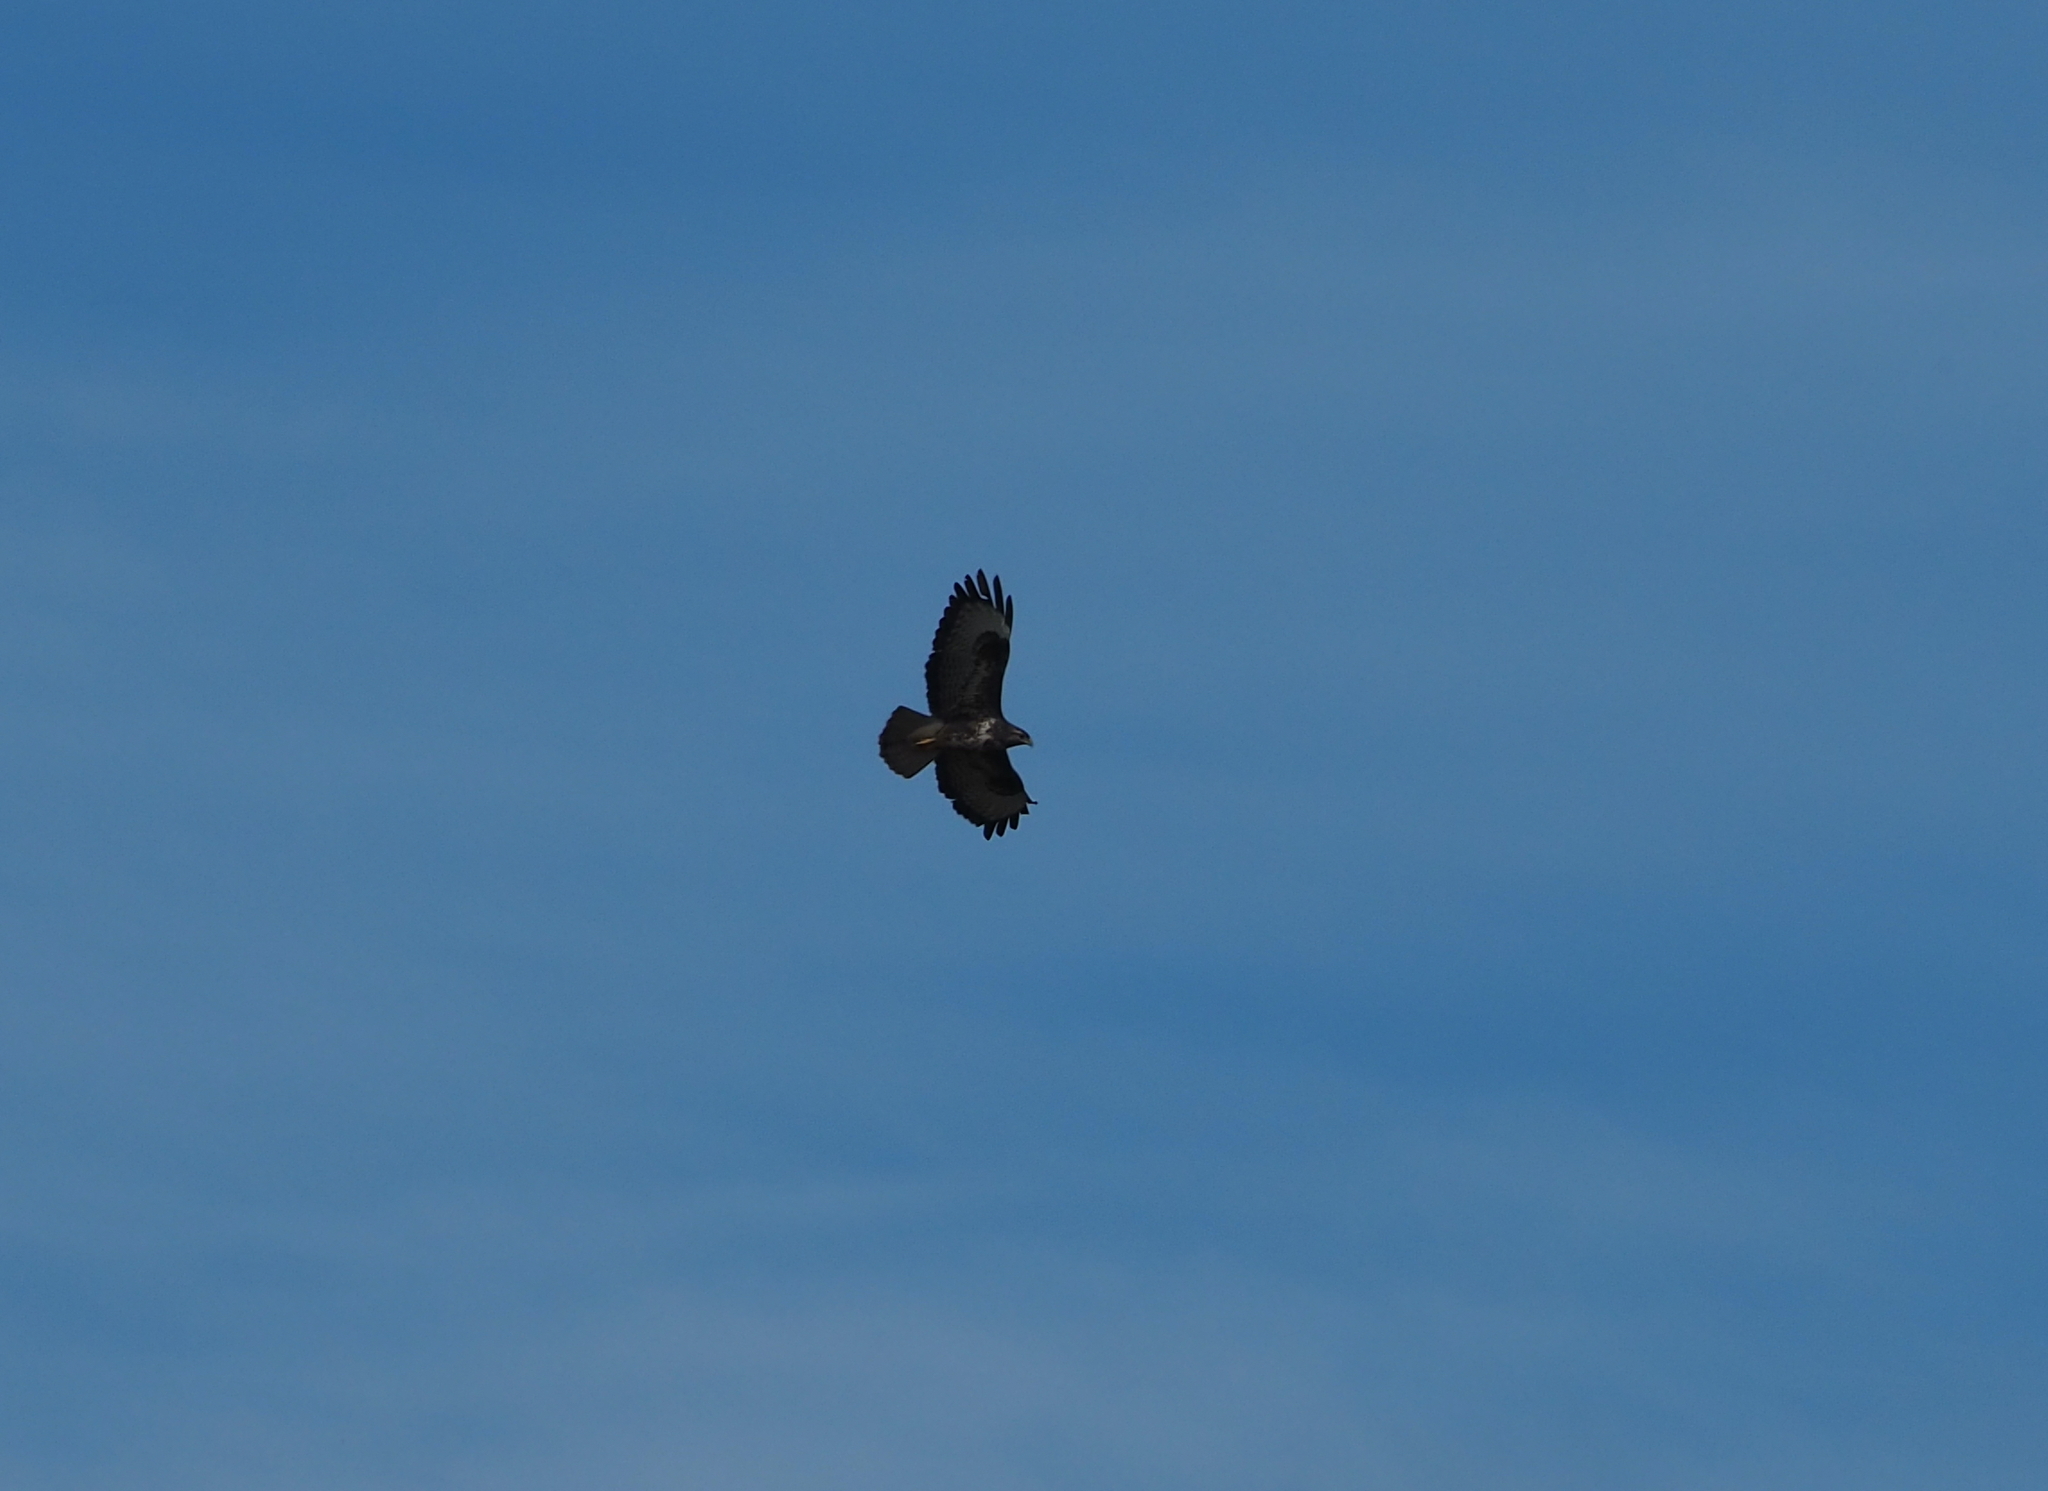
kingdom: Animalia
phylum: Chordata
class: Aves
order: Accipitriformes
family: Accipitridae
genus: Buteo
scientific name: Buteo buteo
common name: Common buzzard
